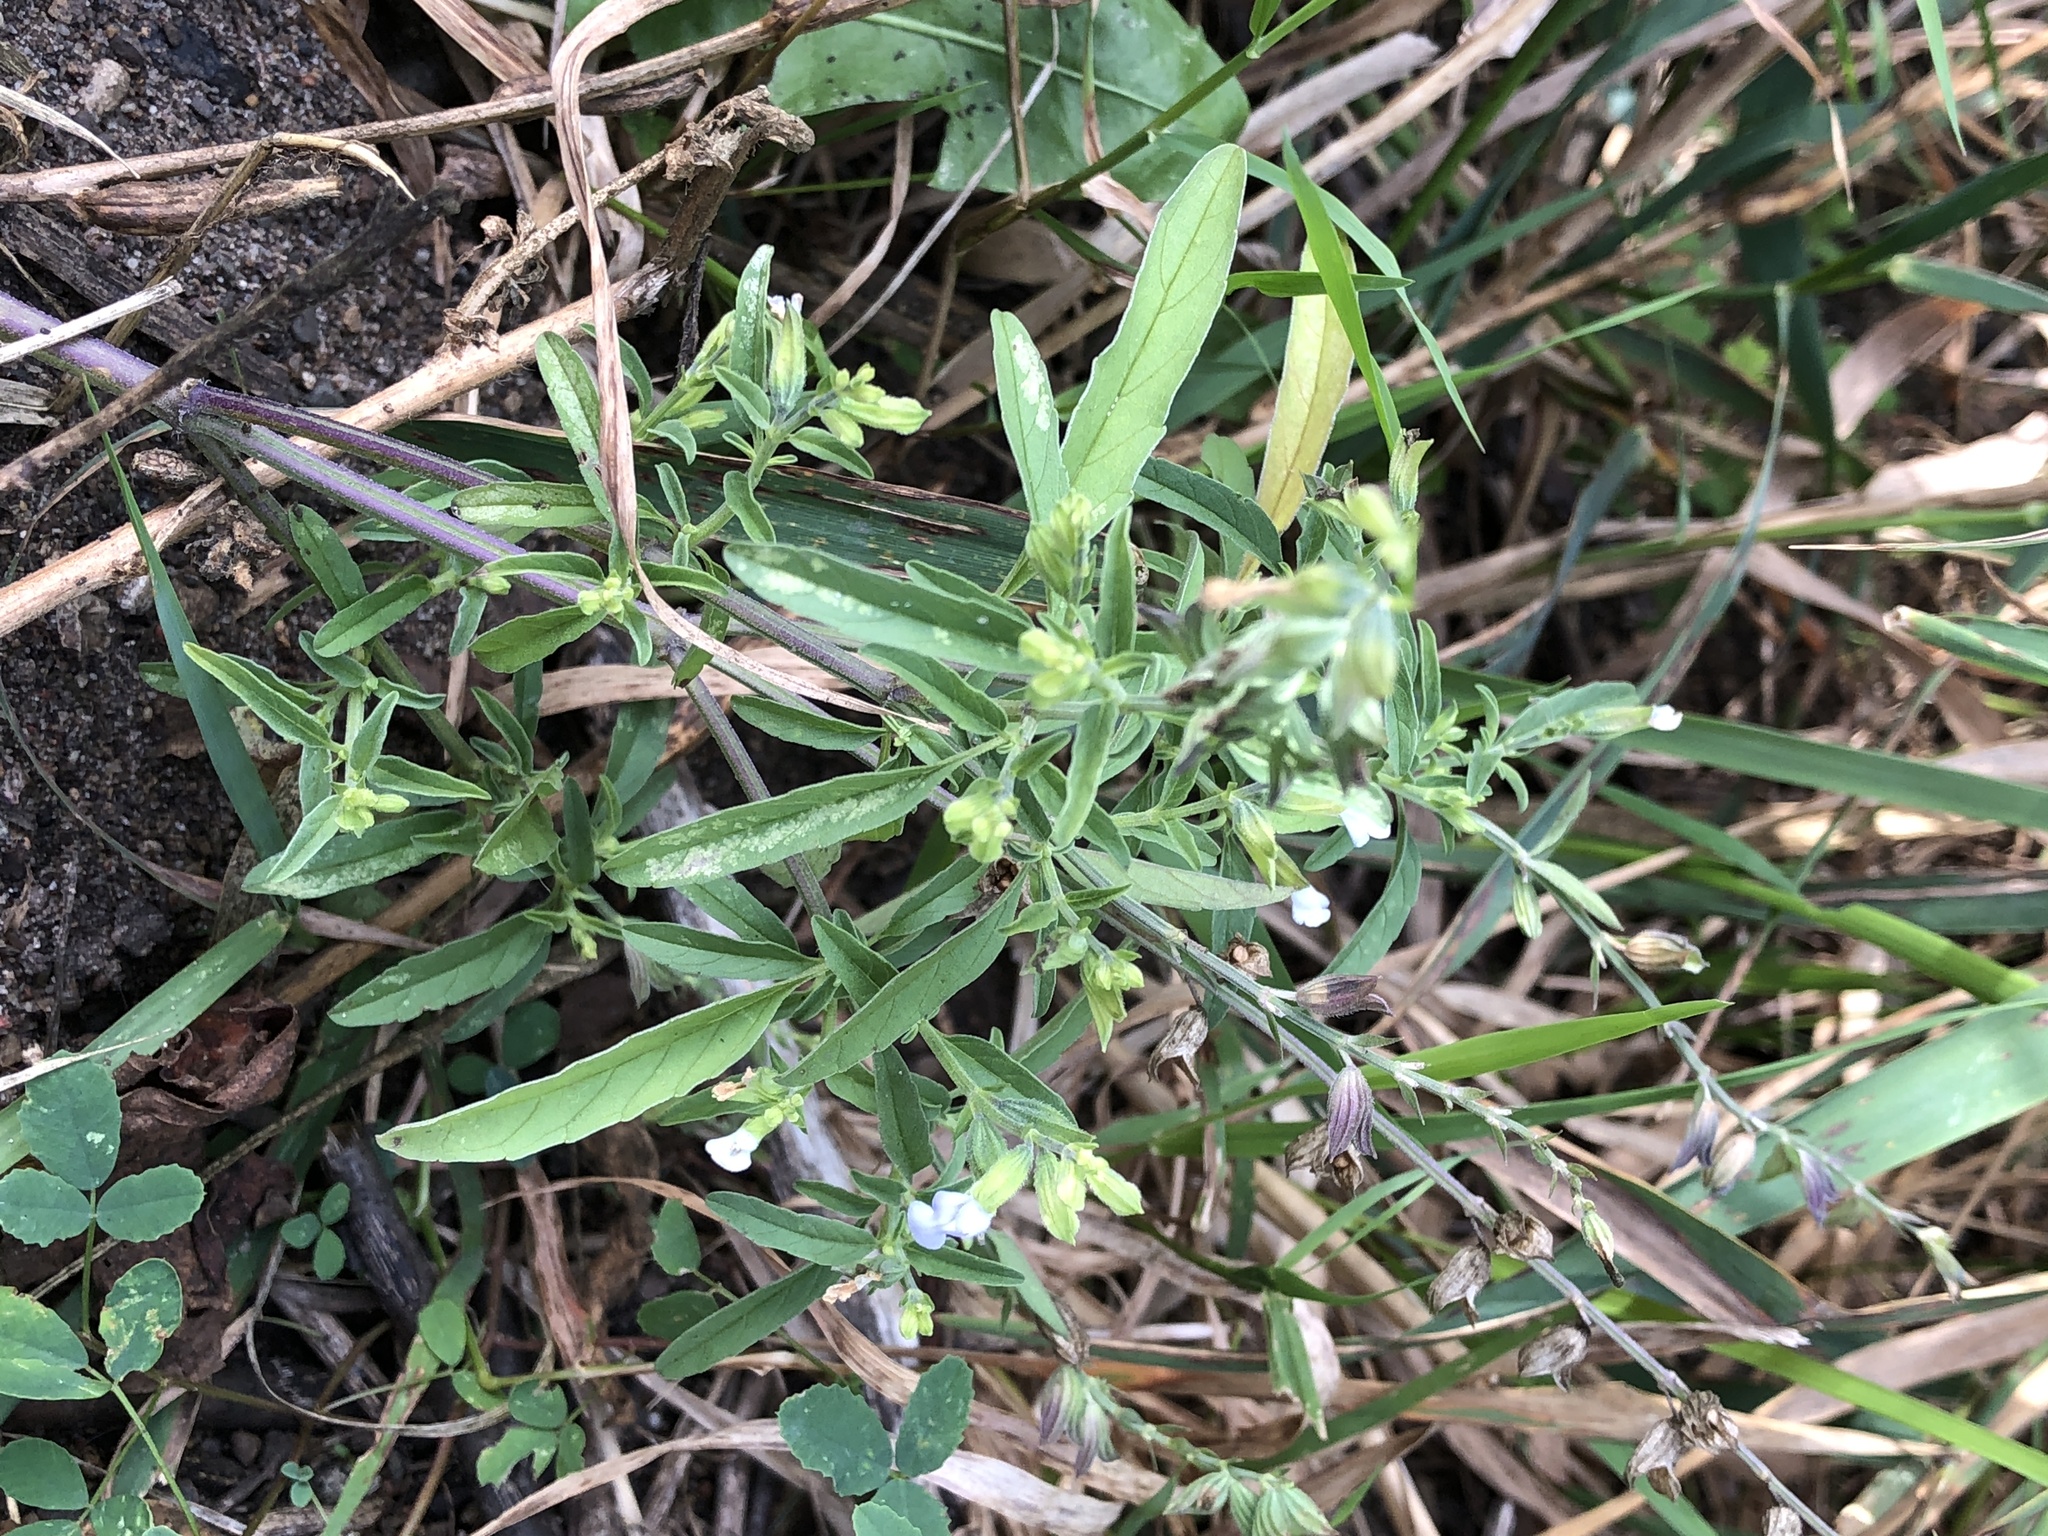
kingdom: Plantae
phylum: Tracheophyta
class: Magnoliopsida
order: Lamiales
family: Lamiaceae
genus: Salvia
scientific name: Salvia reflexa
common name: Mintweed
